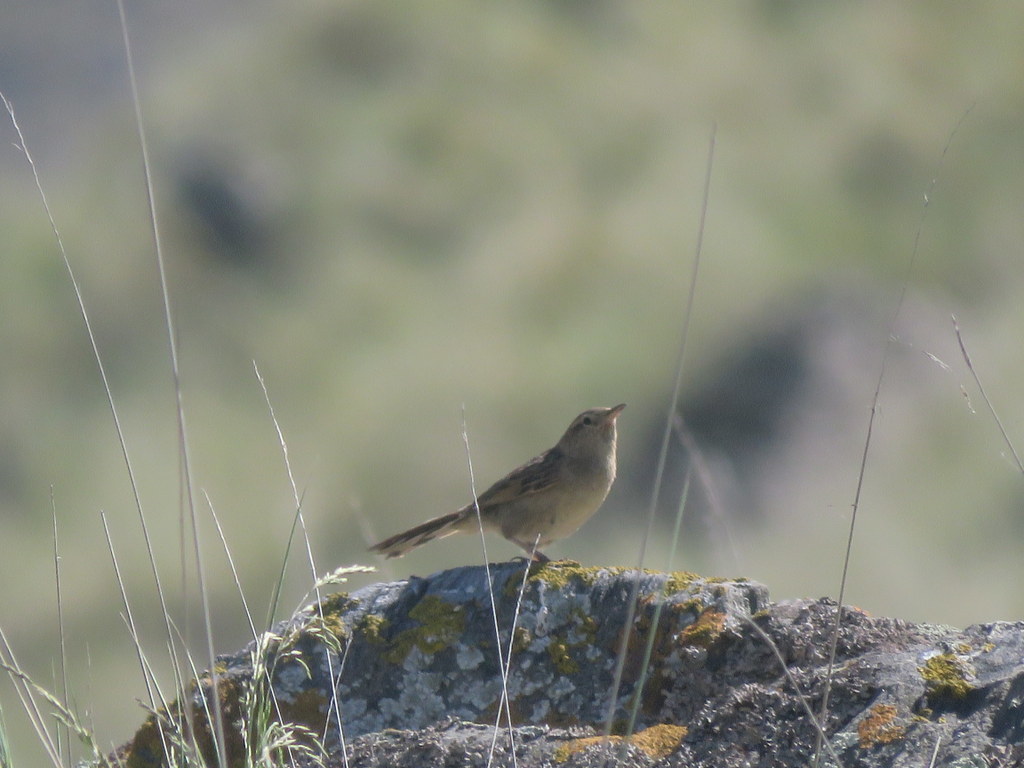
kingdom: Animalia
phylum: Chordata
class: Aves
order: Passeriformes
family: Furnariidae
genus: Asthenes
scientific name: Asthenes wyatti
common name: Streak-backed canastero
